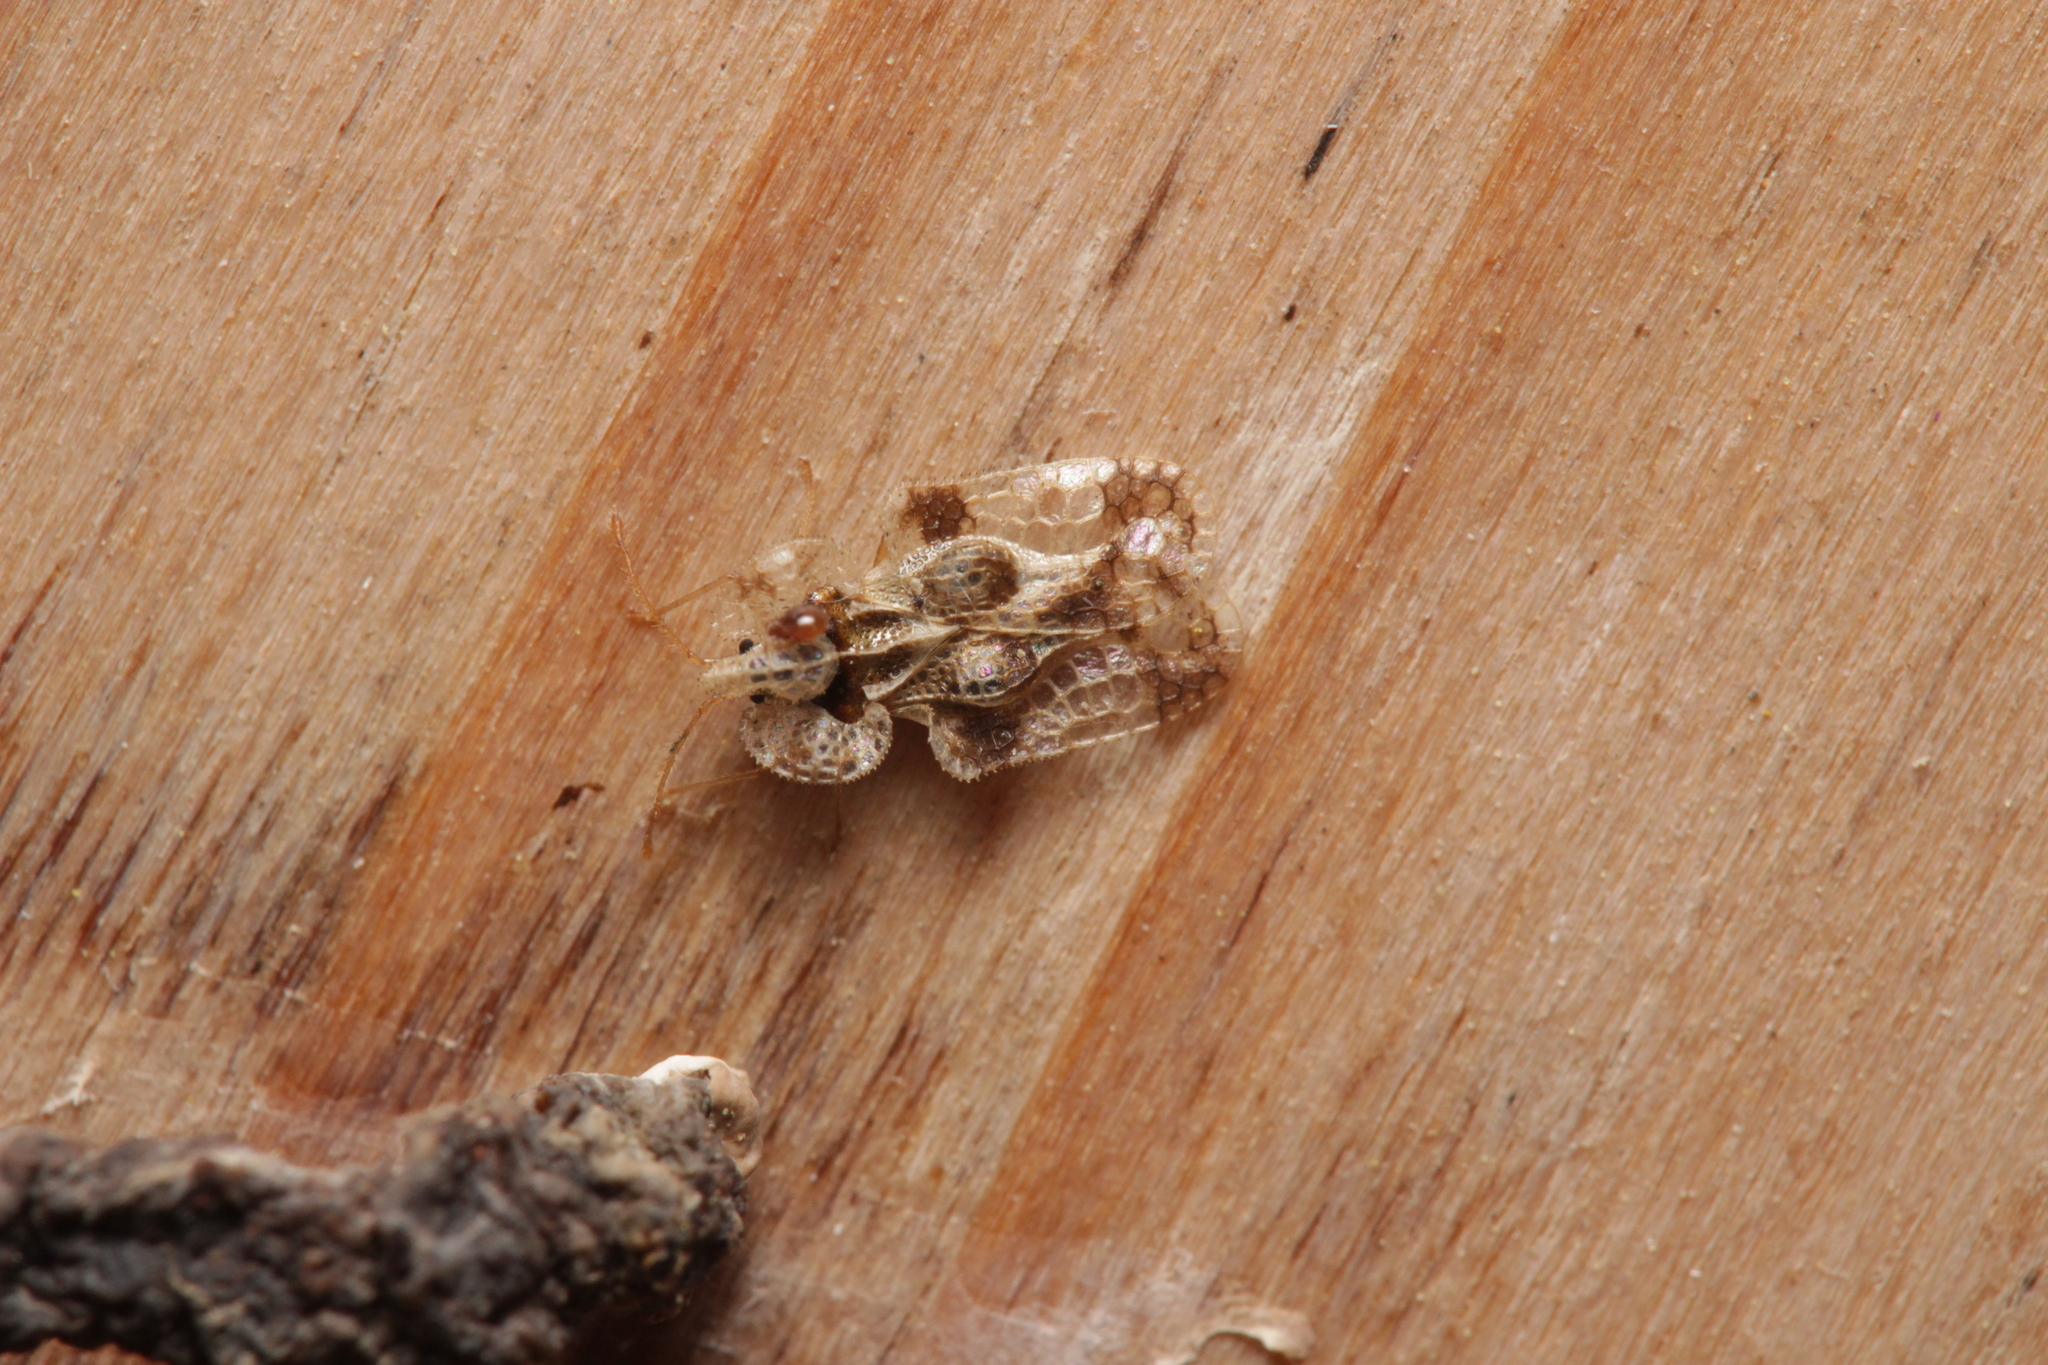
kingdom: Animalia
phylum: Arthropoda
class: Insecta
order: Hemiptera
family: Tingidae
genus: Corythucha
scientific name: Corythucha arcuata
